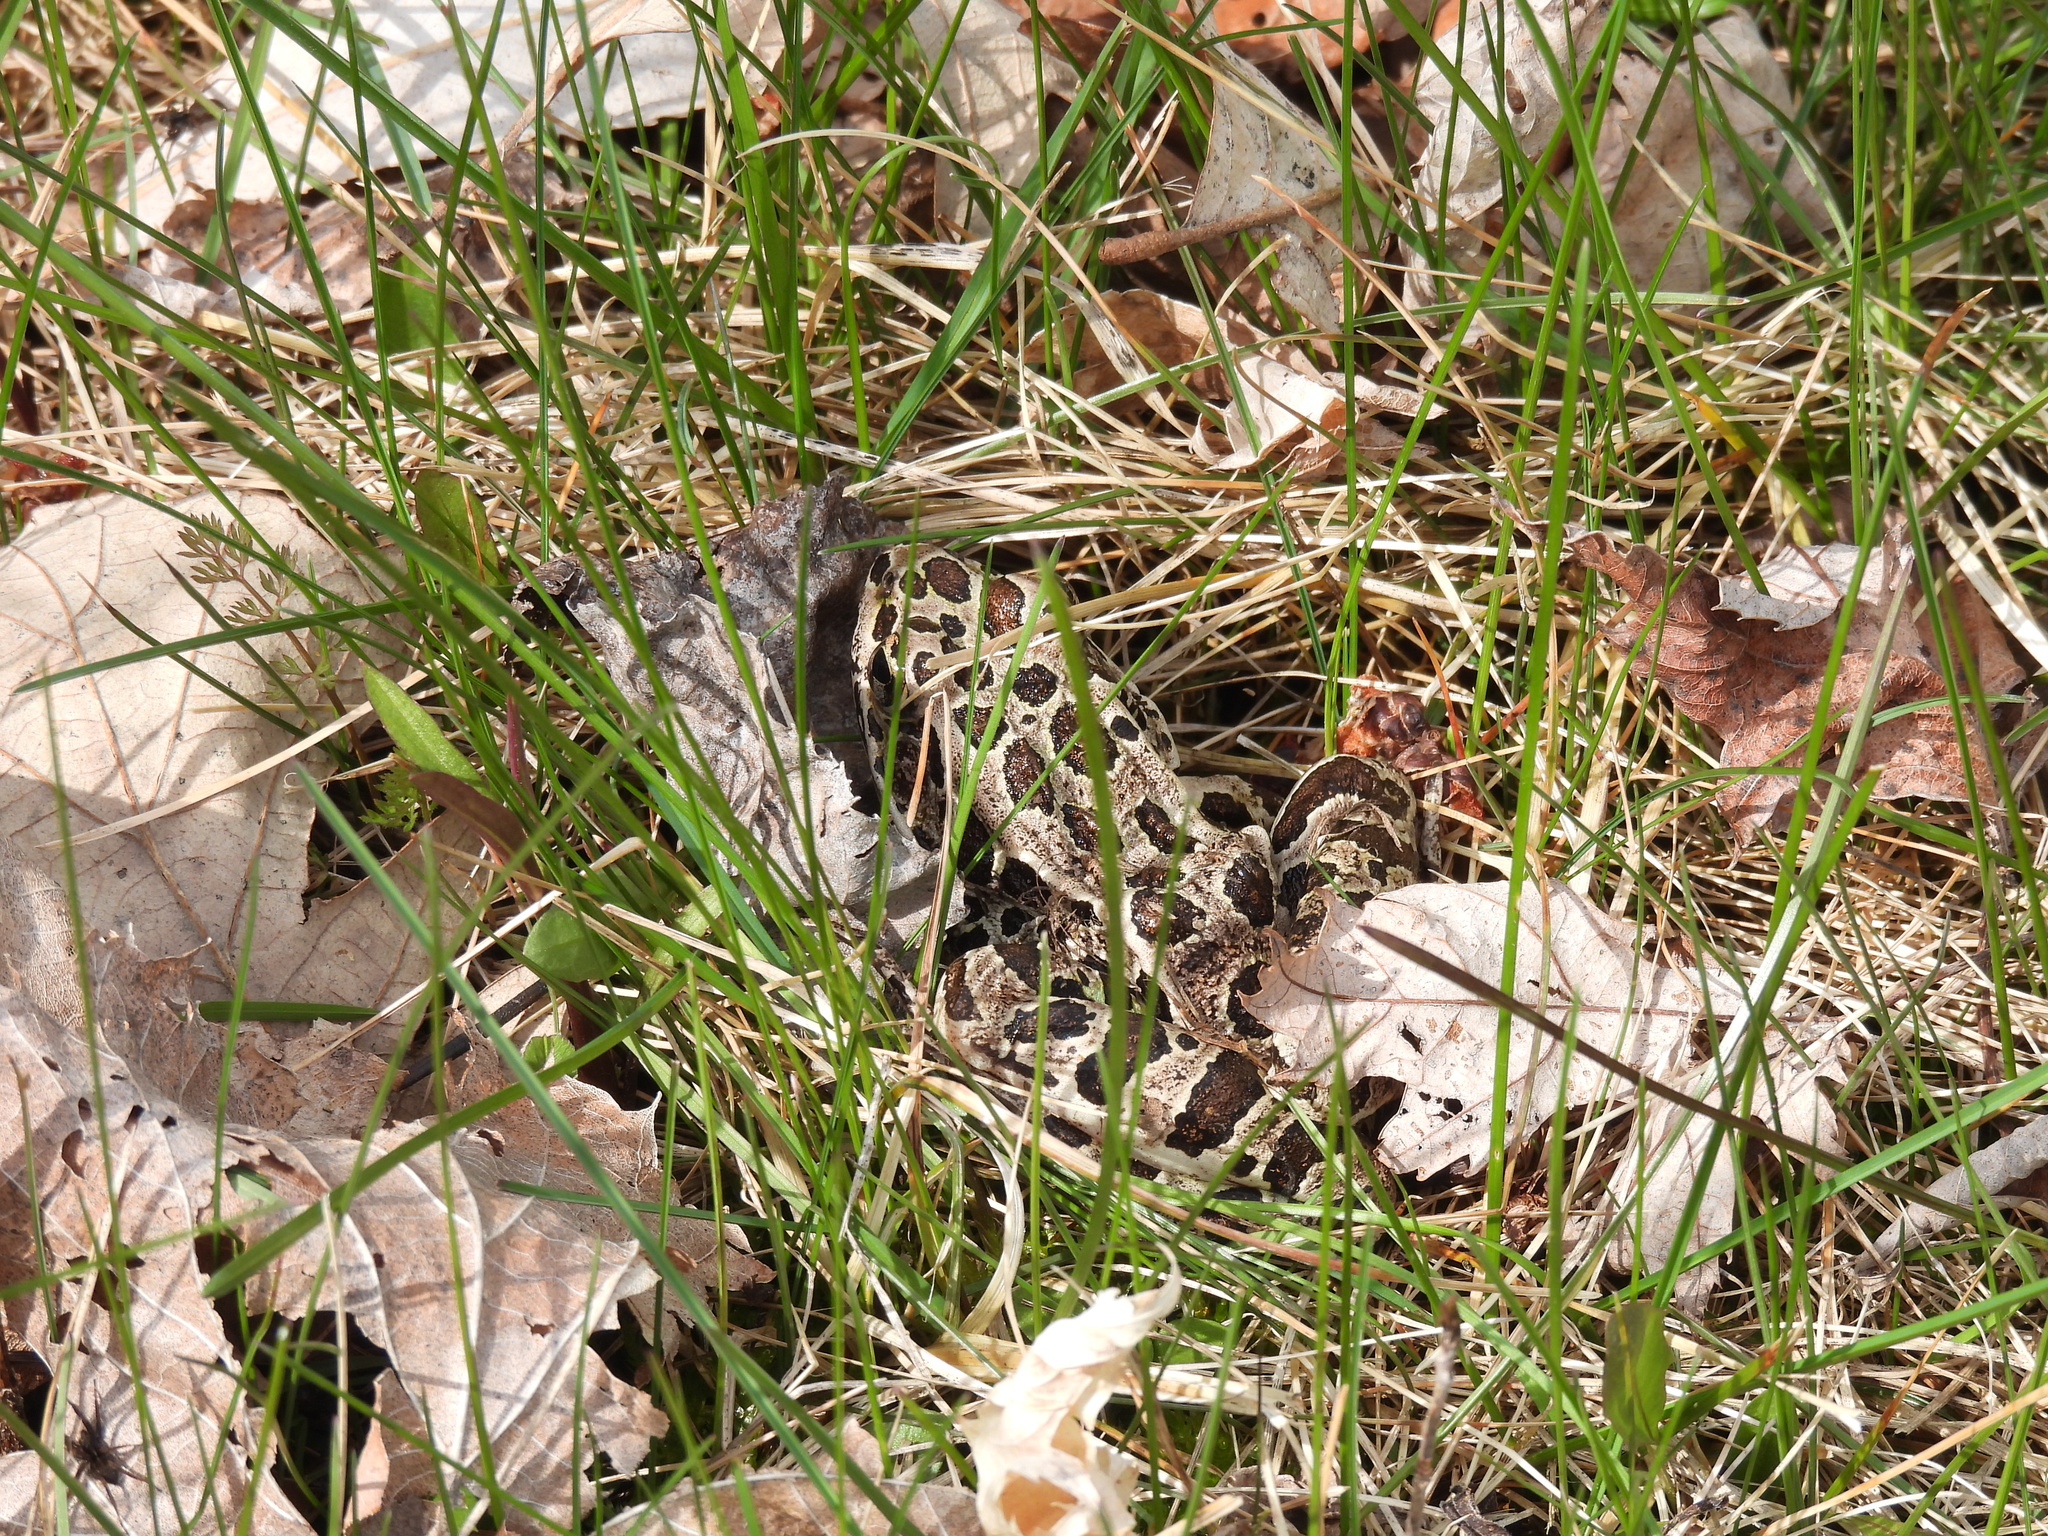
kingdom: Animalia
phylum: Chordata
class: Amphibia
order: Anura
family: Ranidae
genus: Lithobates
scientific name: Lithobates pipiens
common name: Northern leopard frog
